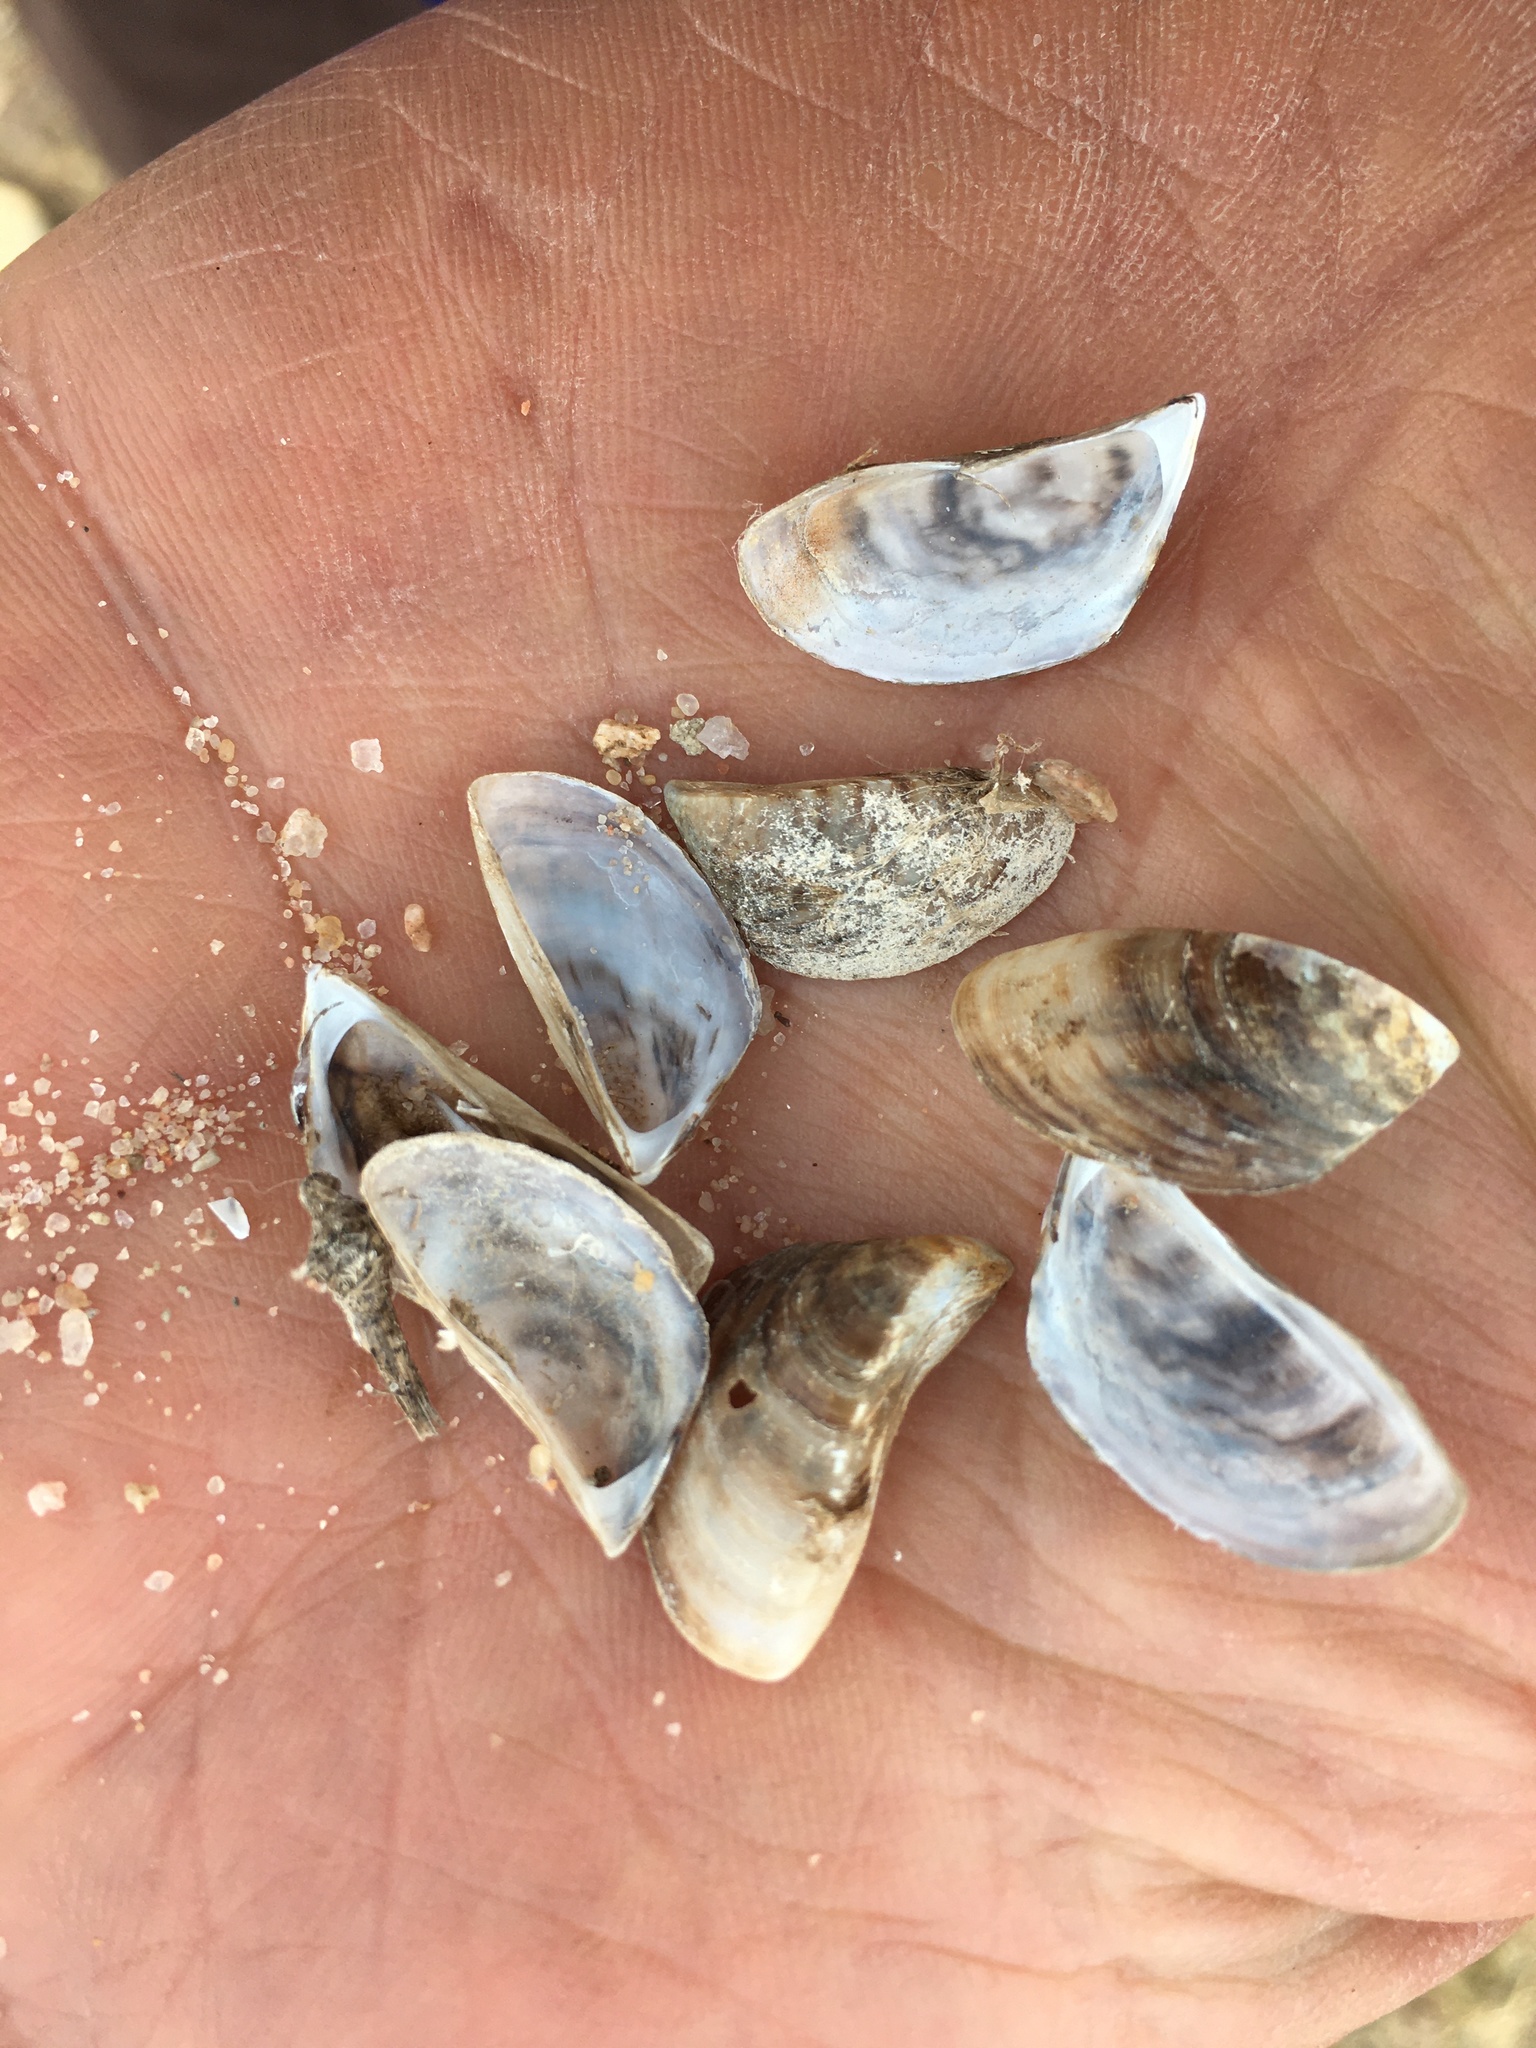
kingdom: Animalia
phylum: Mollusca
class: Bivalvia
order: Myida
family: Dreissenidae
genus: Dreissena
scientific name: Dreissena polymorpha
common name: Zebra mussel
